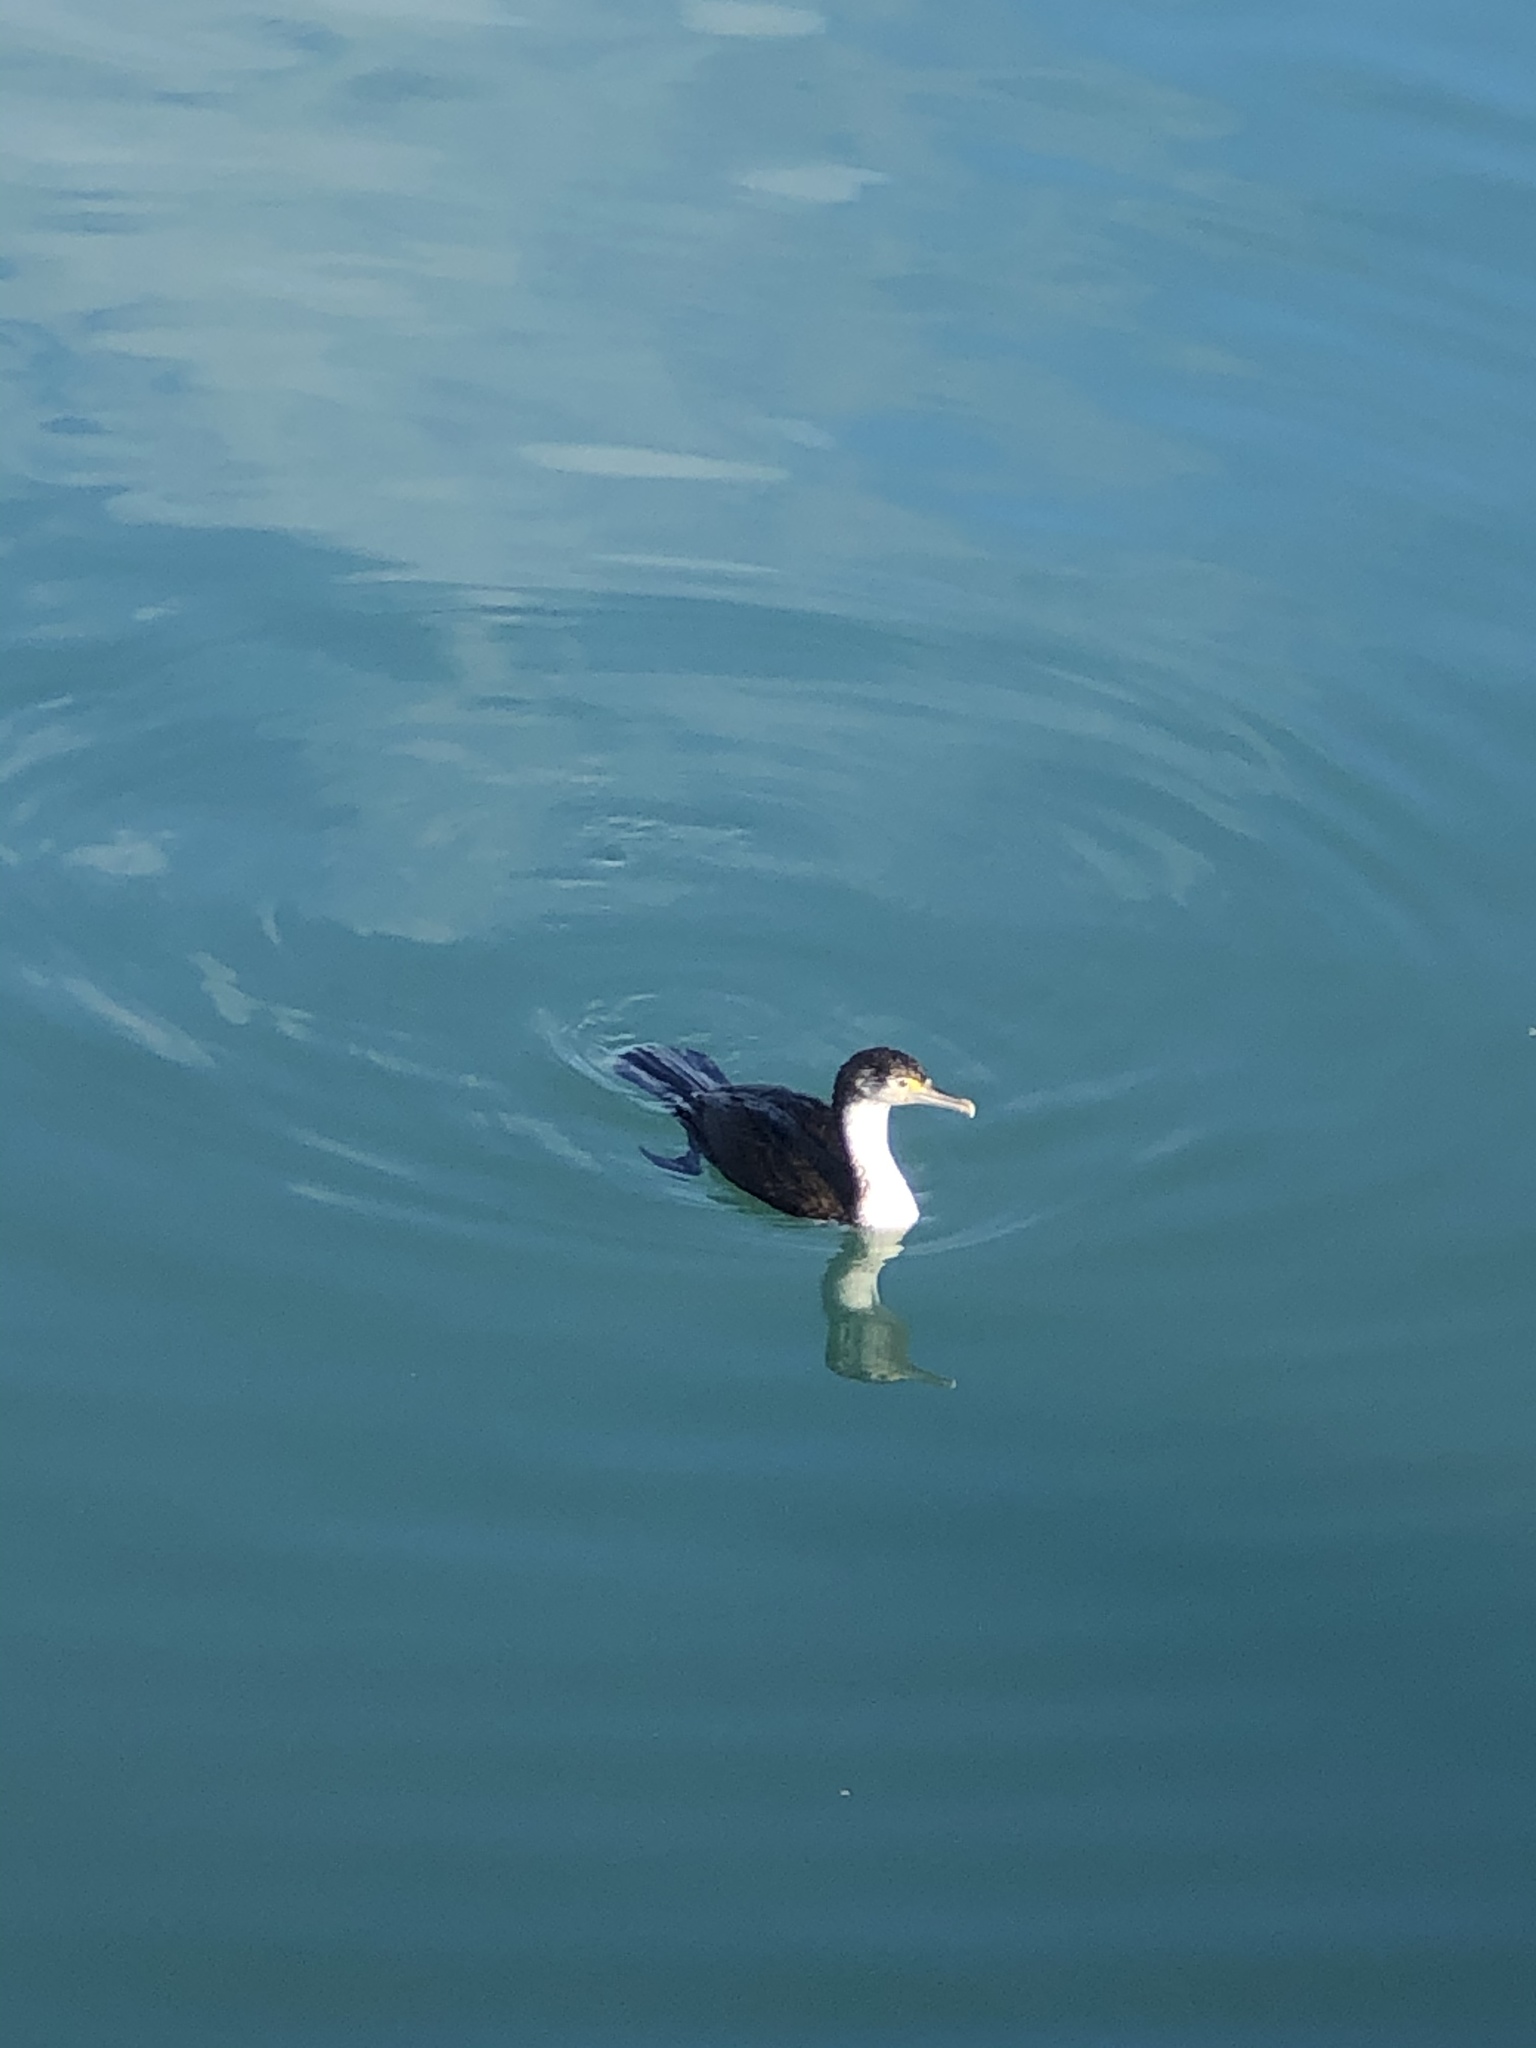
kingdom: Animalia
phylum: Chordata
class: Aves
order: Suliformes
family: Phalacrocoracidae
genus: Phalacrocorax
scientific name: Phalacrocorax varius
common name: Pied cormorant
